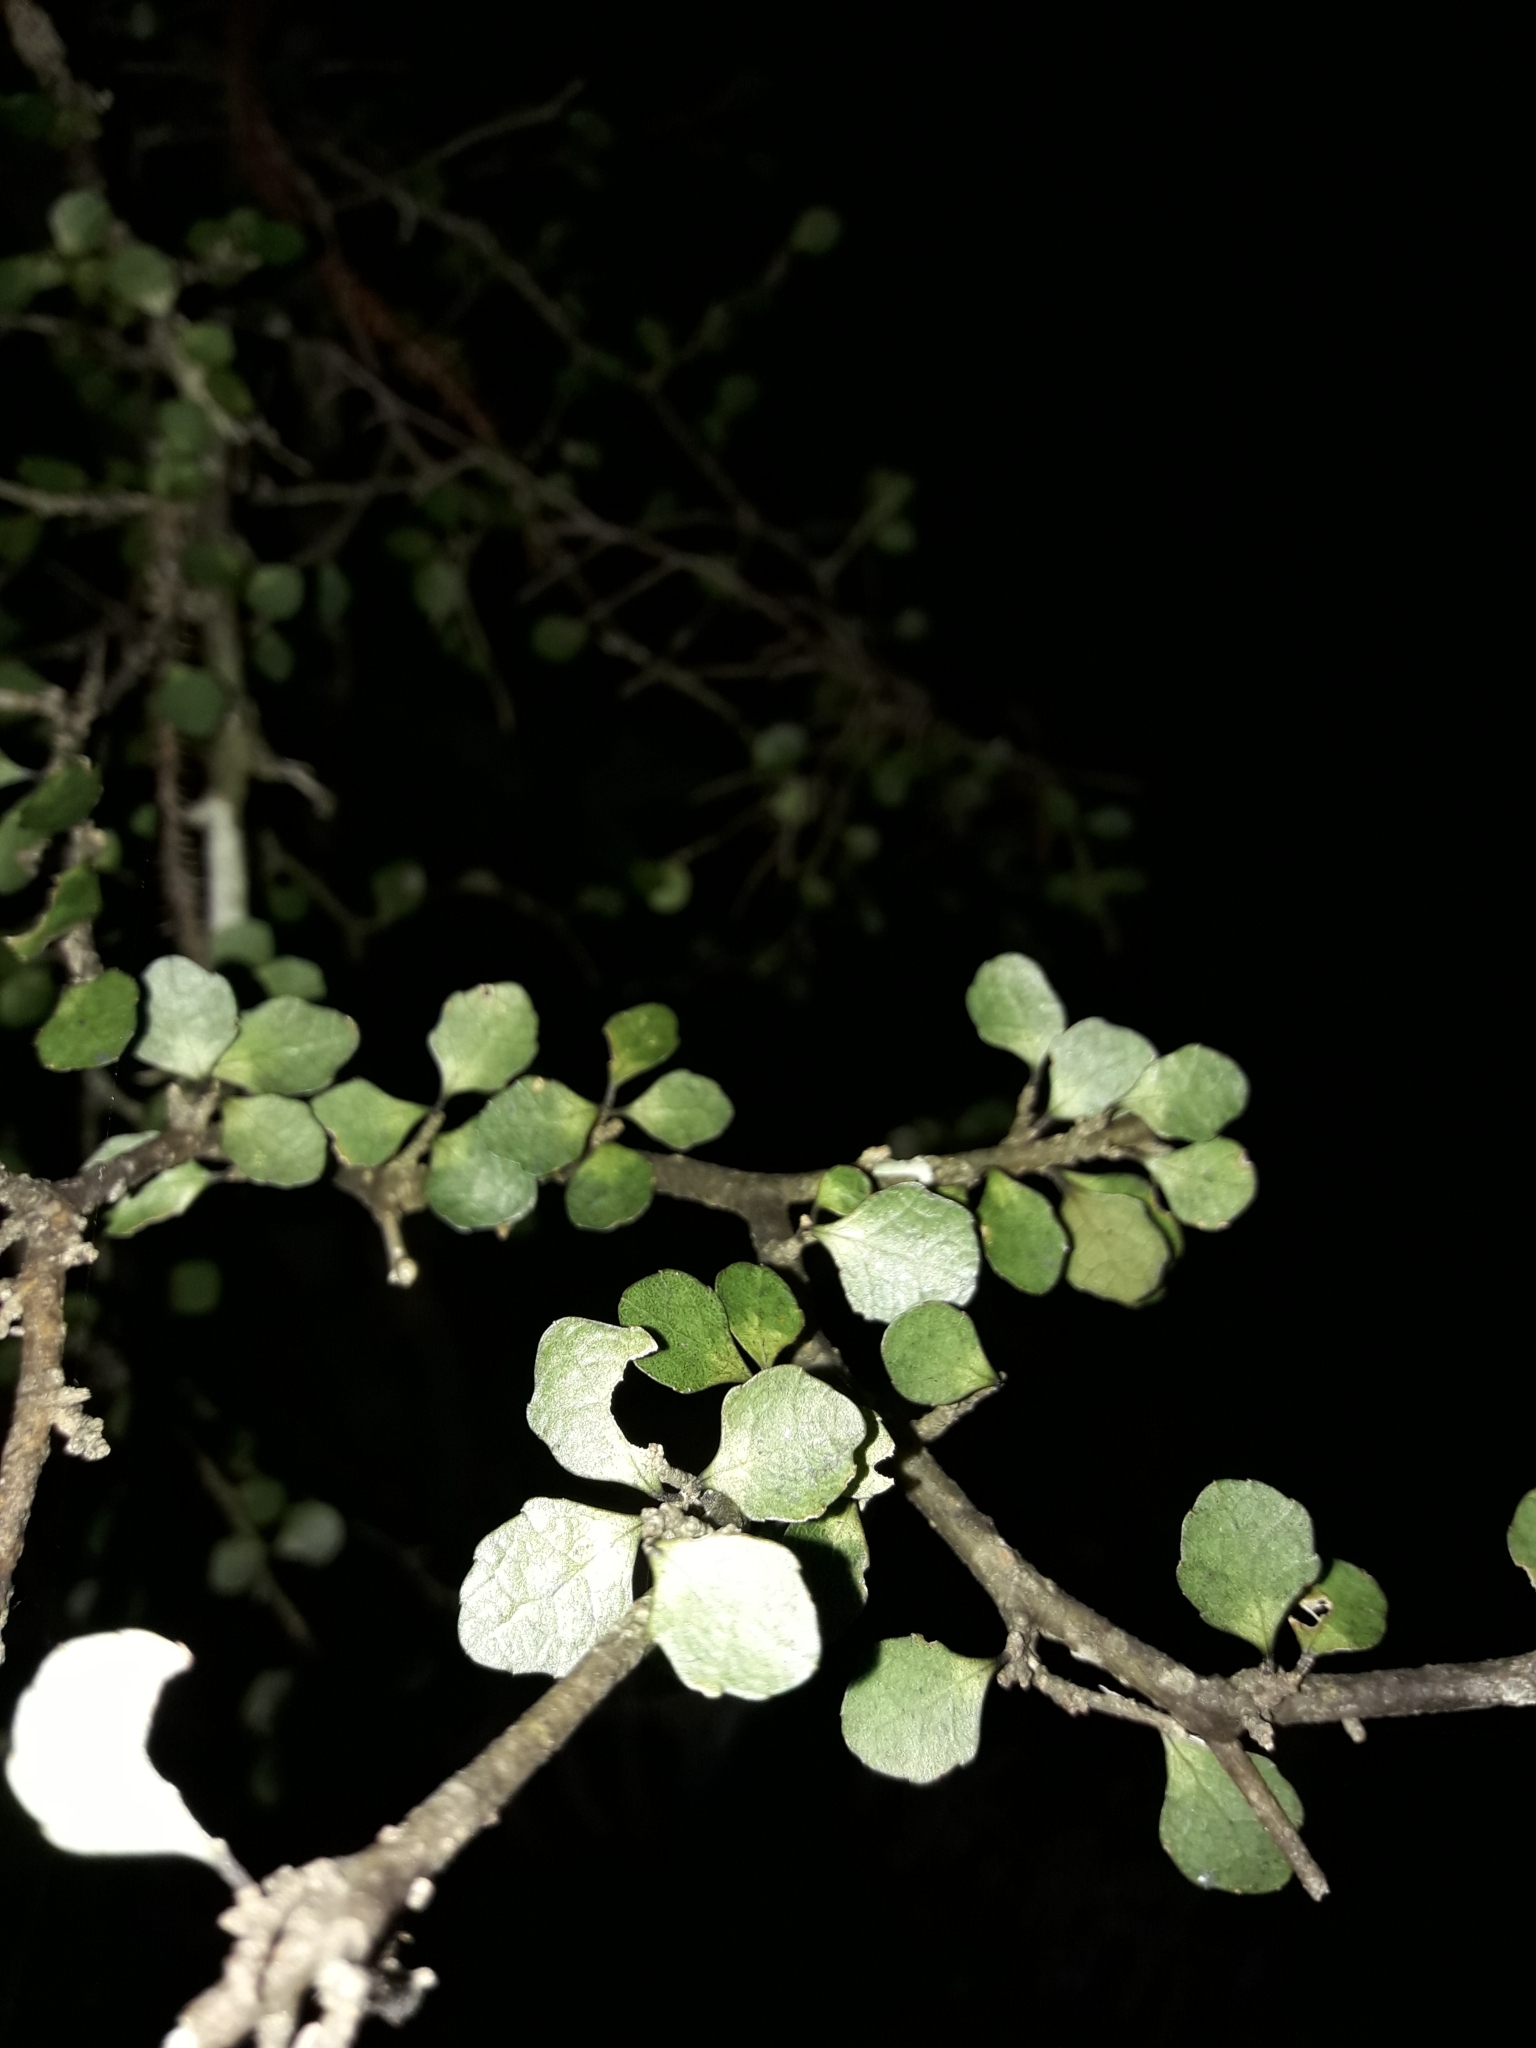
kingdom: Plantae
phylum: Tracheophyta
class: Magnoliopsida
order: Malpighiales
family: Violaceae
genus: Melicytus
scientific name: Melicytus micranthus
